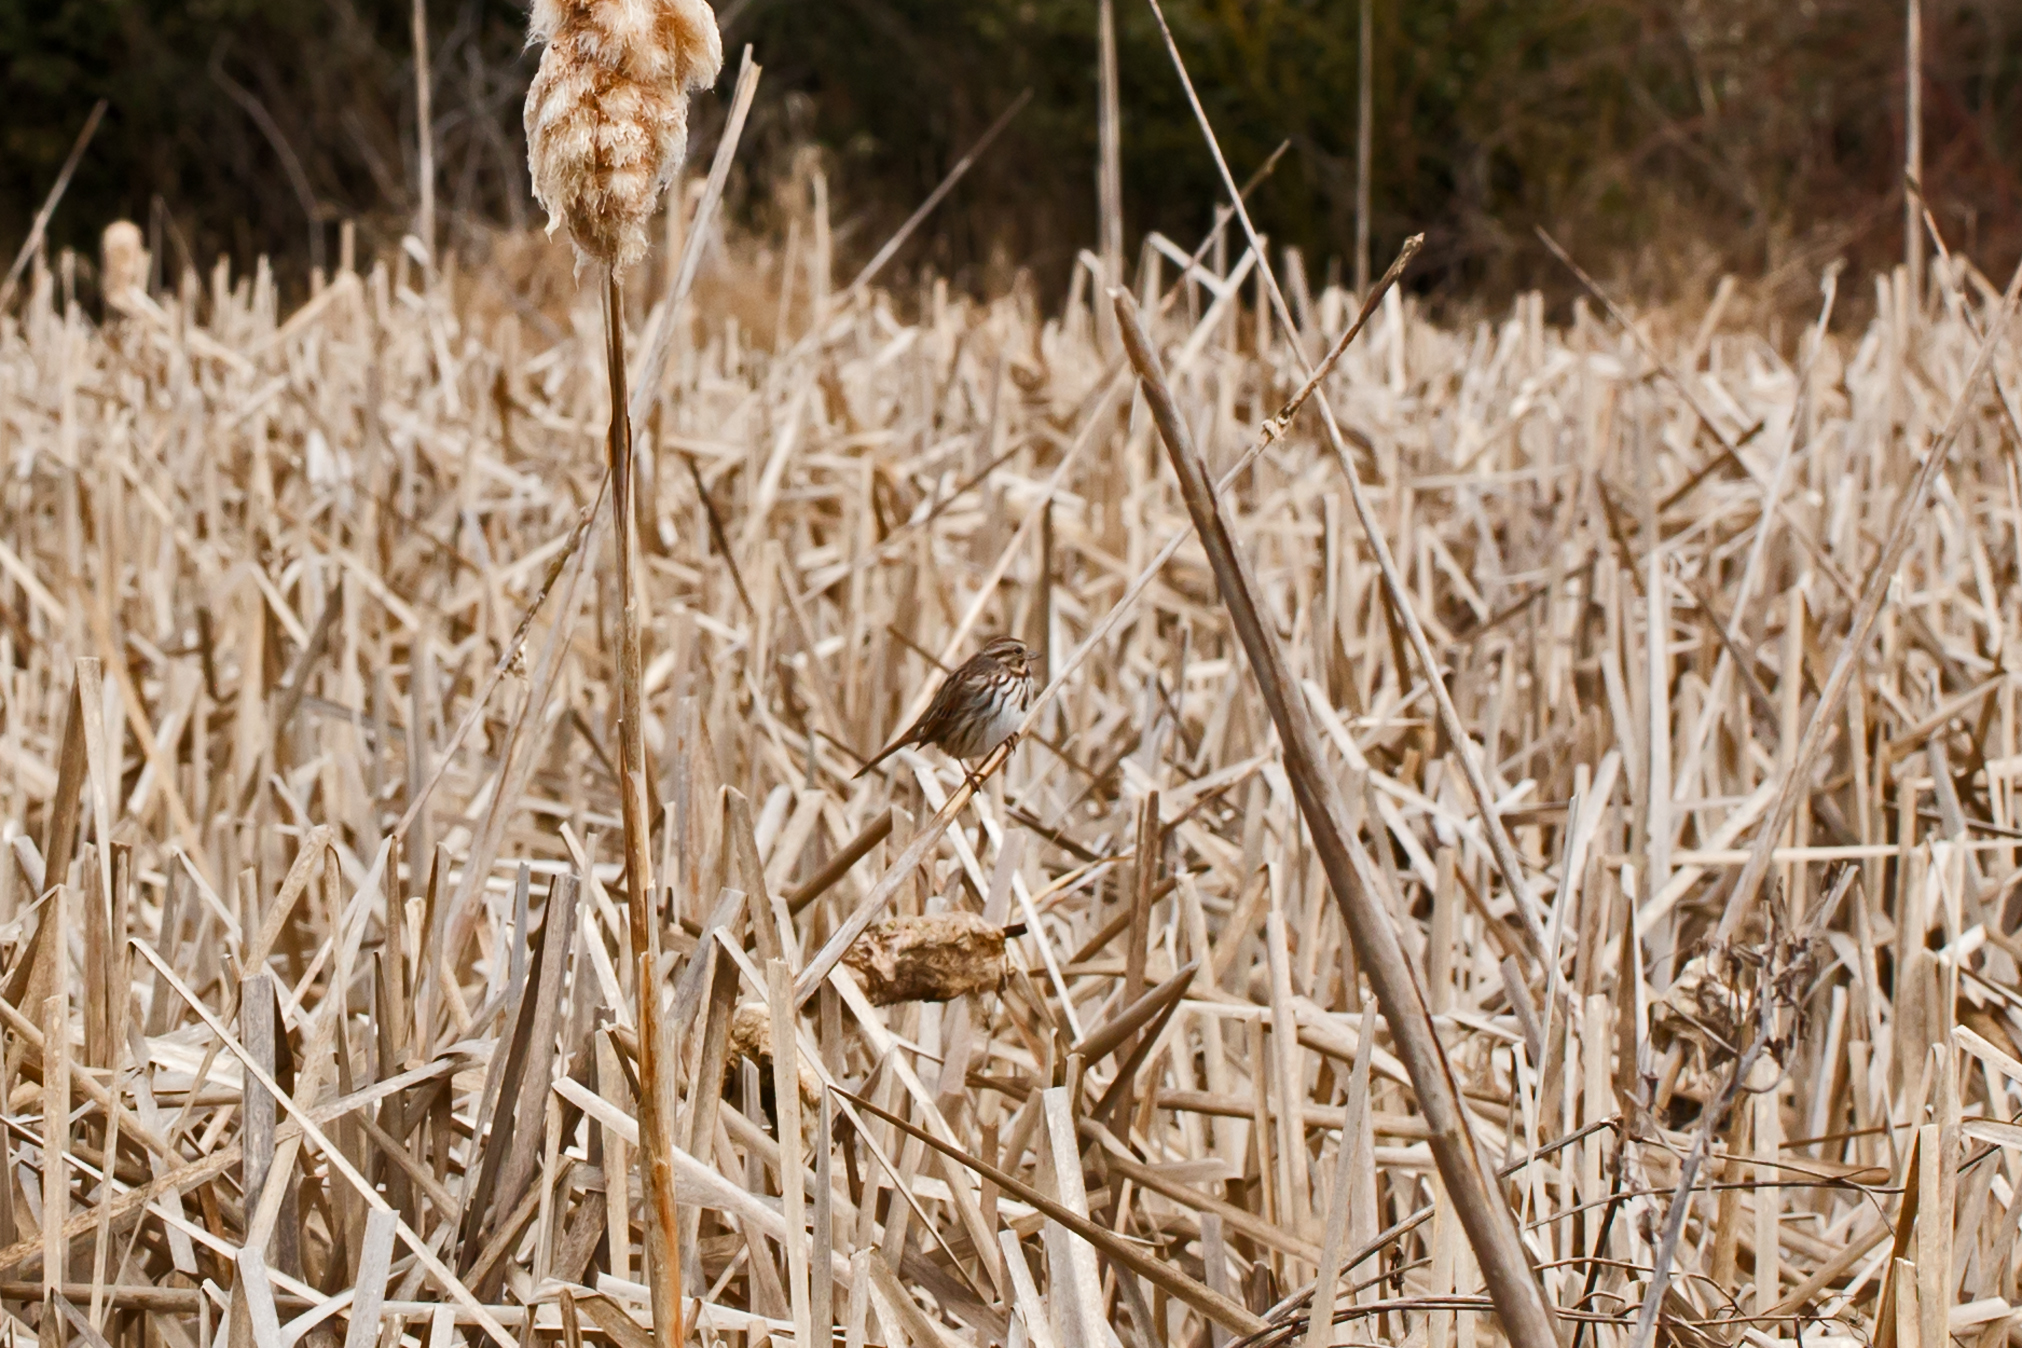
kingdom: Animalia
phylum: Chordata
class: Aves
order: Passeriformes
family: Passerellidae
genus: Melospiza
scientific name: Melospiza melodia
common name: Song sparrow
